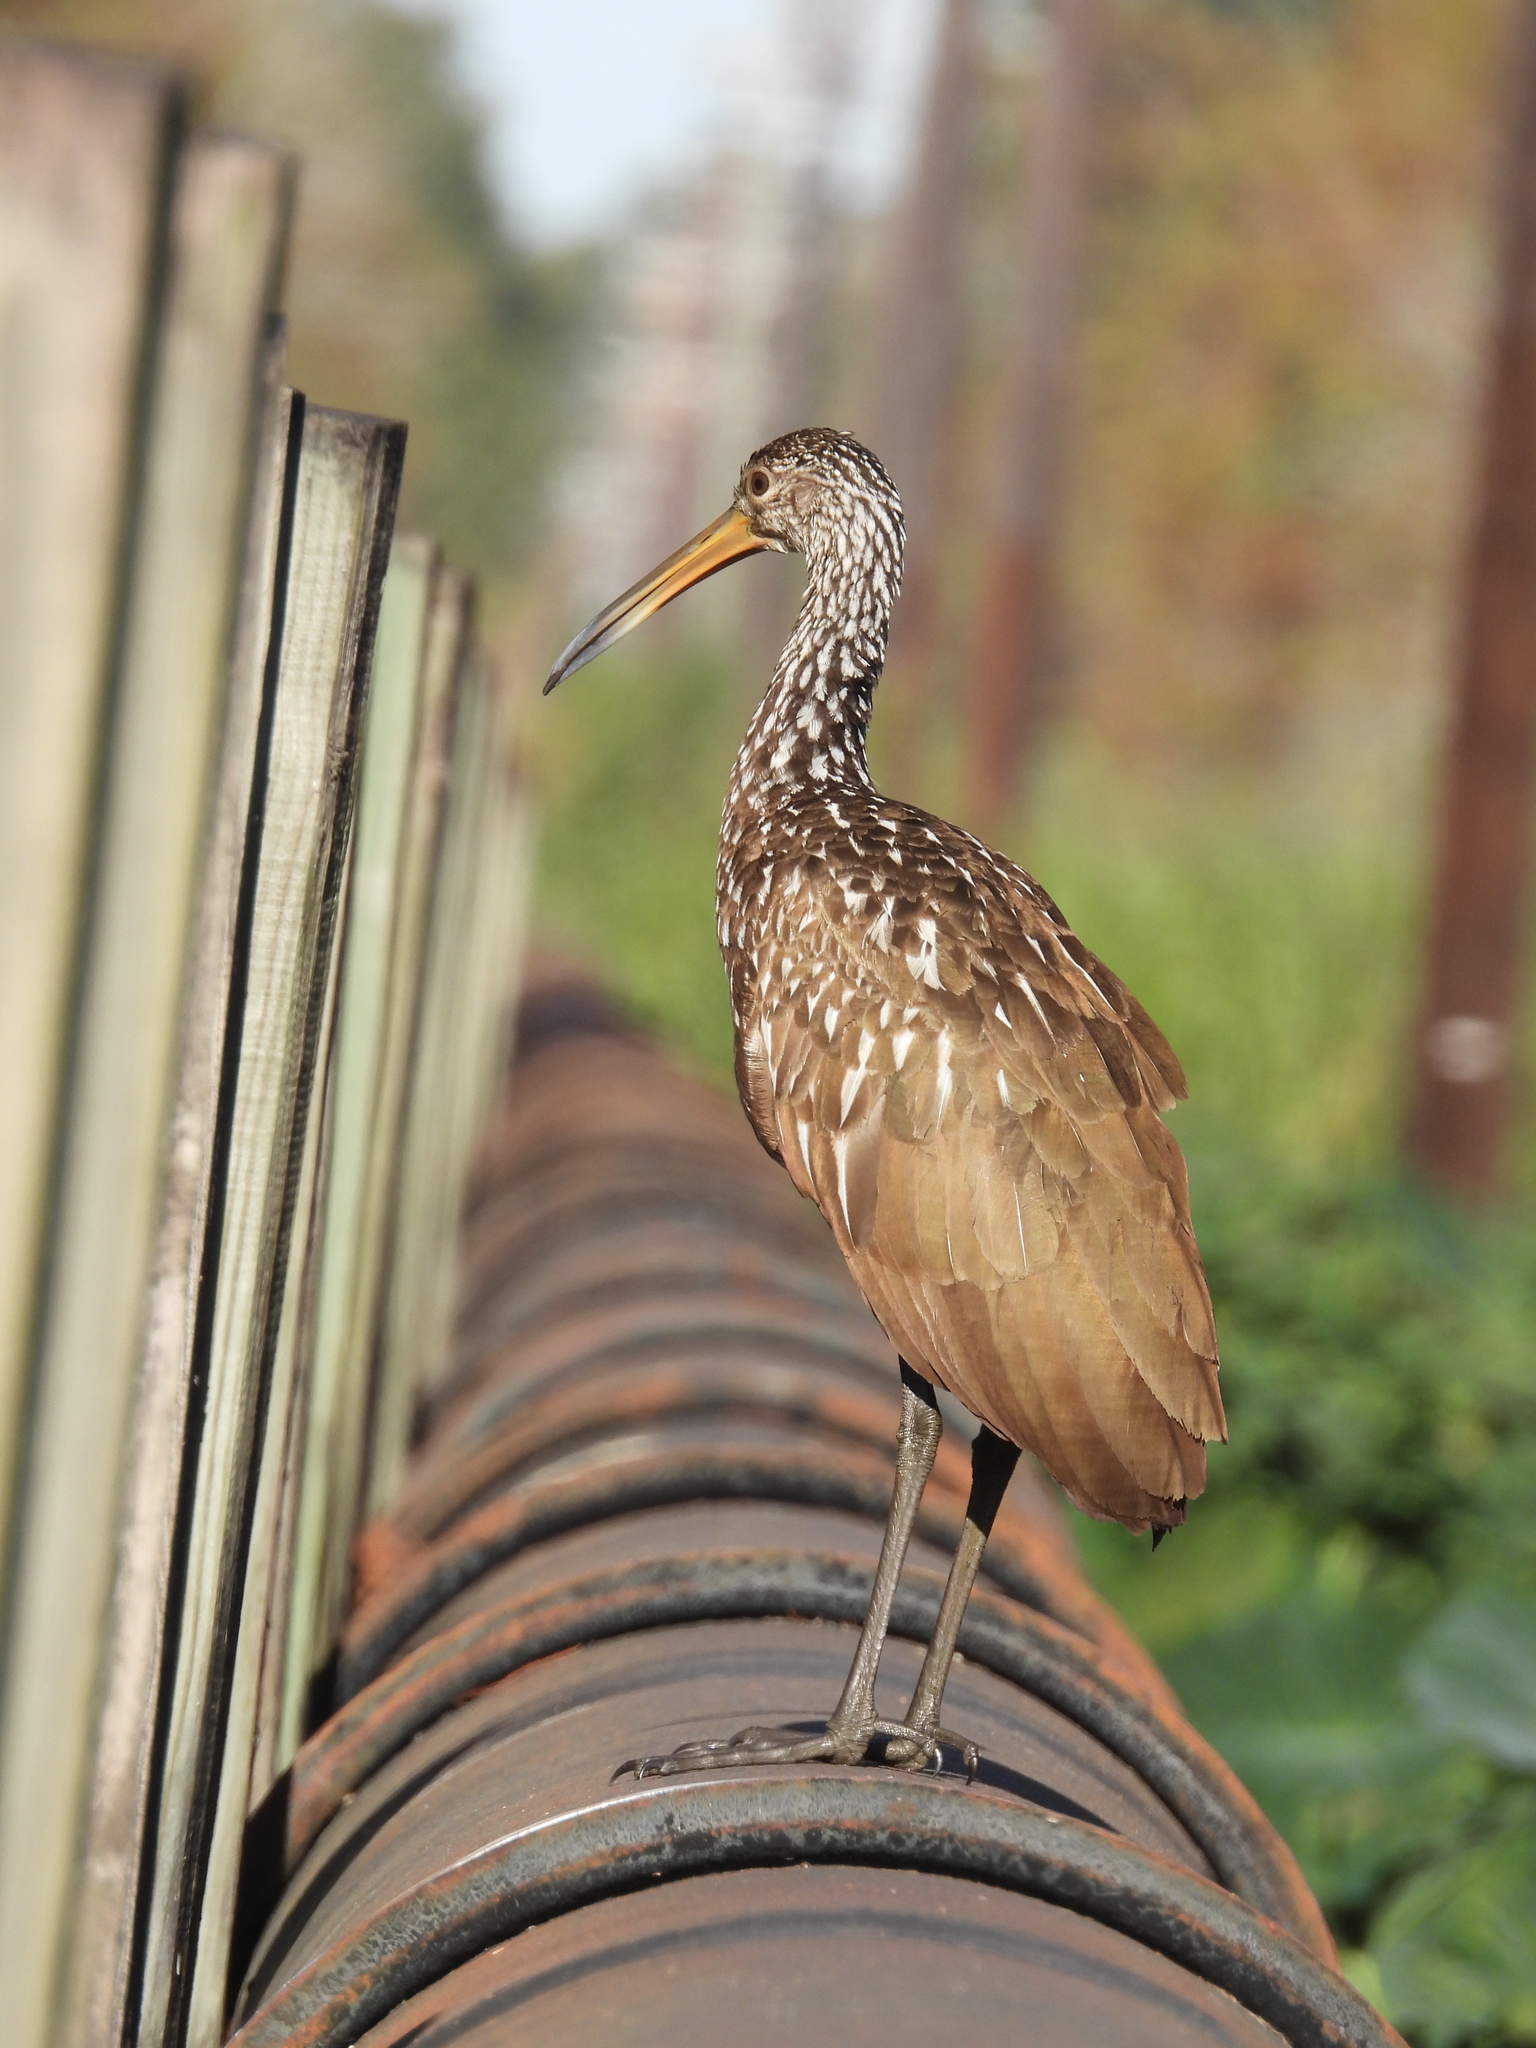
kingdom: Animalia
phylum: Chordata
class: Aves
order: Gruiformes
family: Aramidae
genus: Aramus
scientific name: Aramus guarauna
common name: Limpkin
